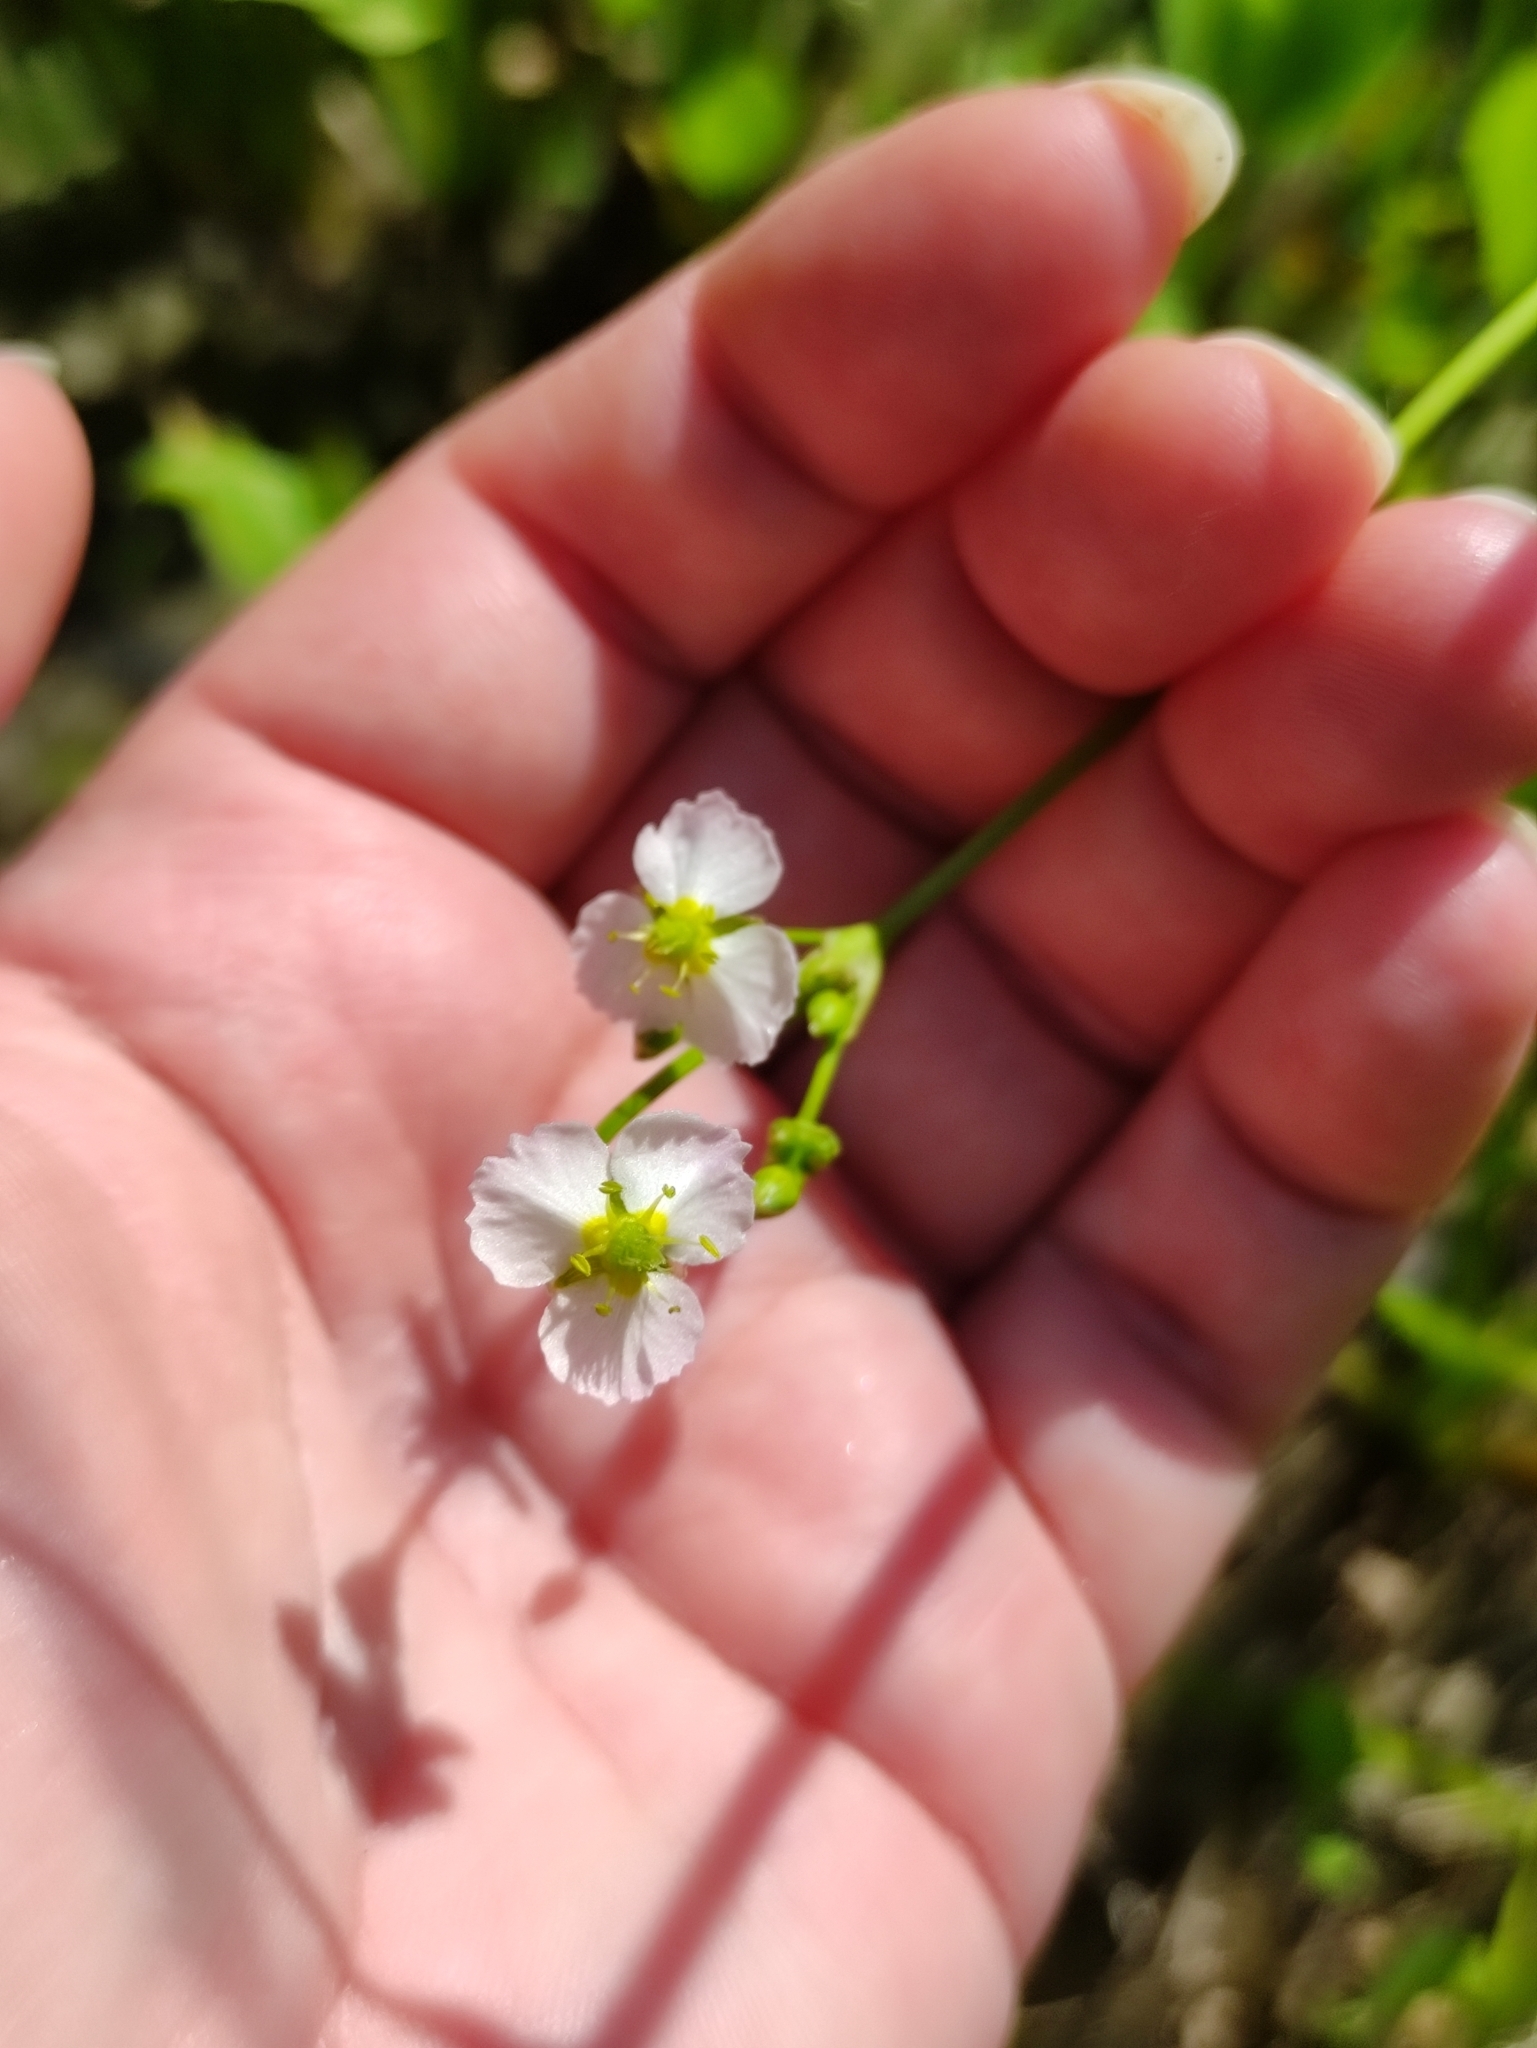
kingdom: Plantae
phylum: Tracheophyta
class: Liliopsida
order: Alismatales
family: Alismataceae
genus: Alisma
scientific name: Alisma plantago-aquatica
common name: Water-plantain
